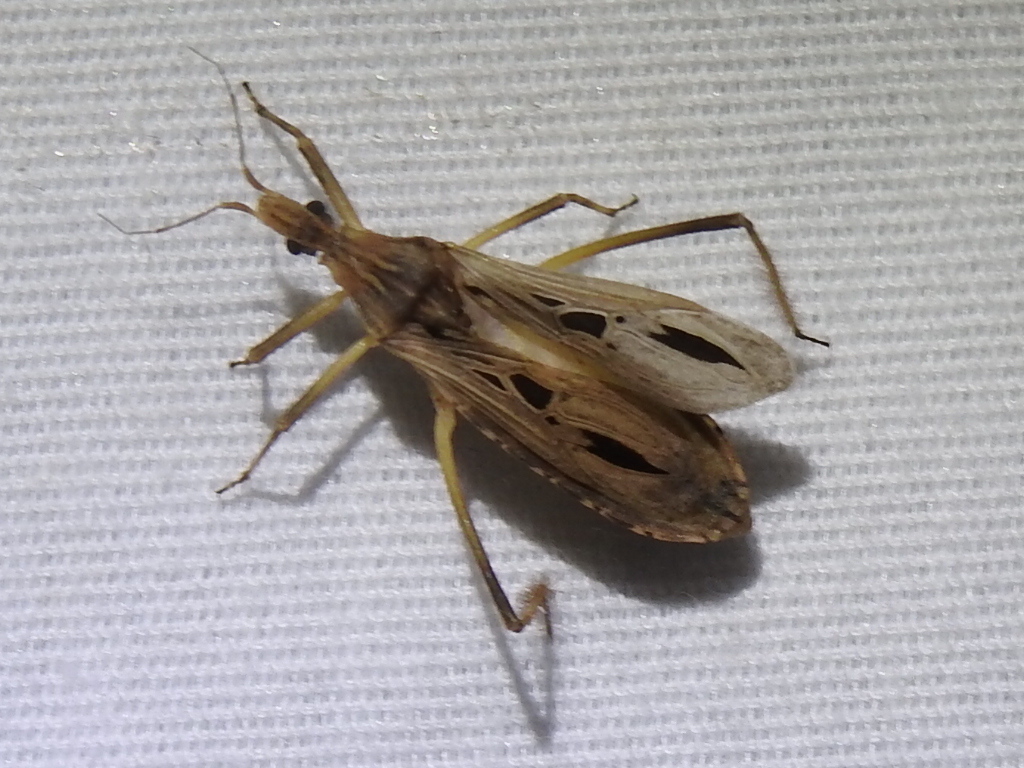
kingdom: Animalia
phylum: Arthropoda
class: Insecta
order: Hemiptera
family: Reduviidae
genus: Narvesus
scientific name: Narvesus carolinensis
